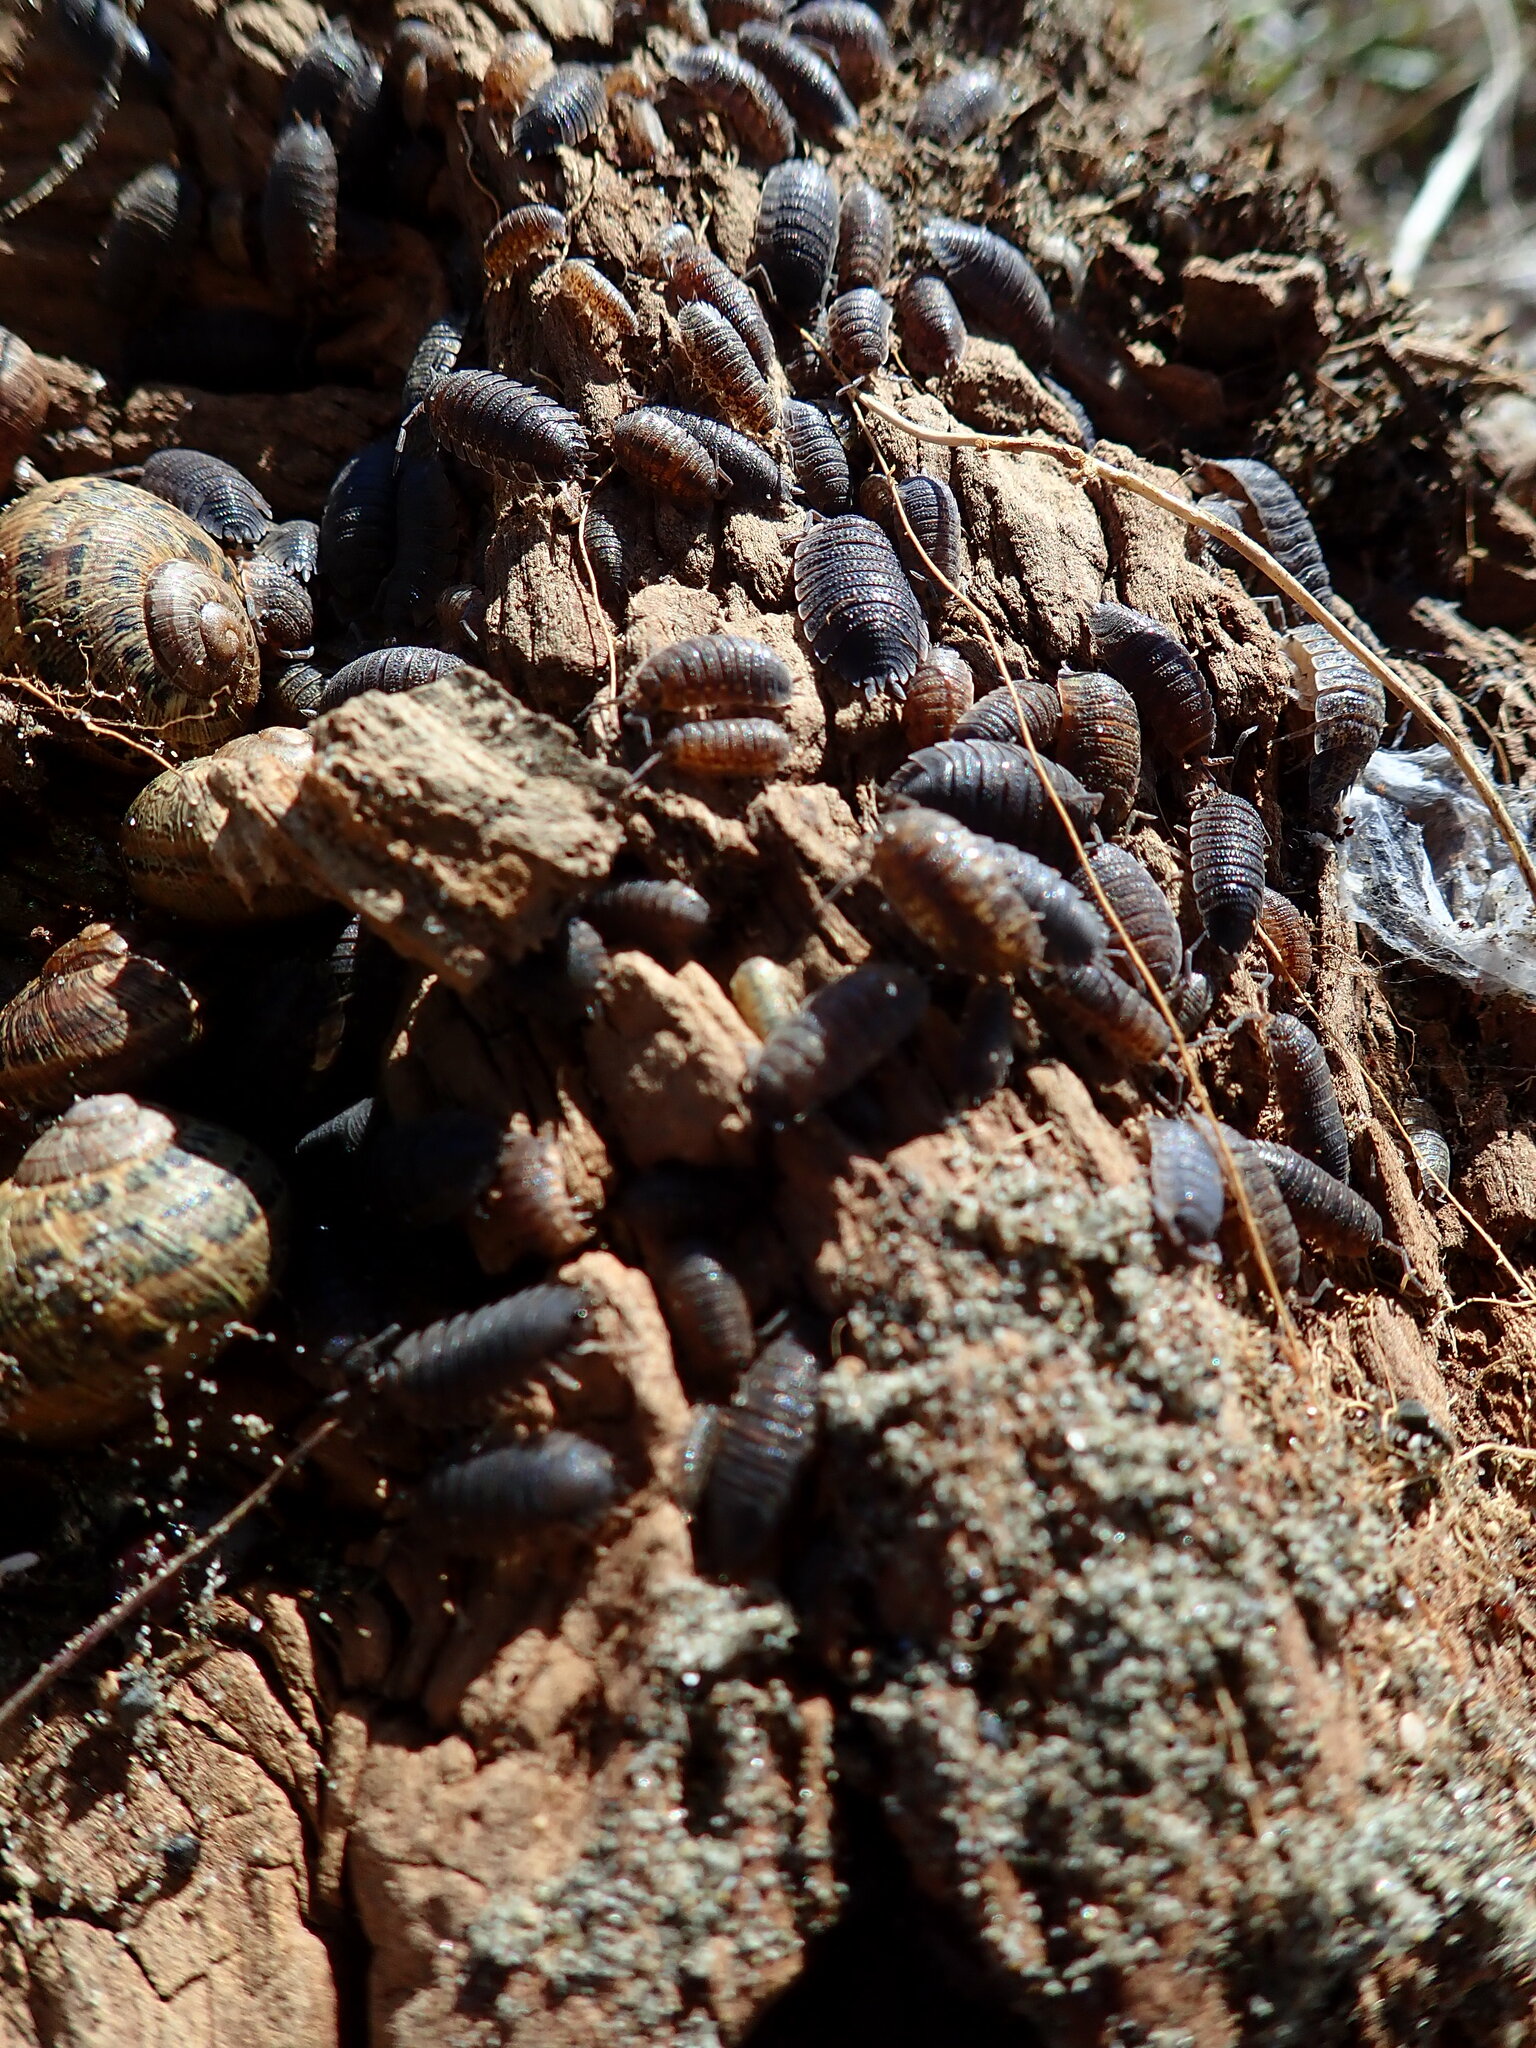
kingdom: Animalia
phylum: Arthropoda
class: Malacostraca
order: Isopoda
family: Porcellionidae
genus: Porcellio
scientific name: Porcellio scaber
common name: Common rough woodlouse
